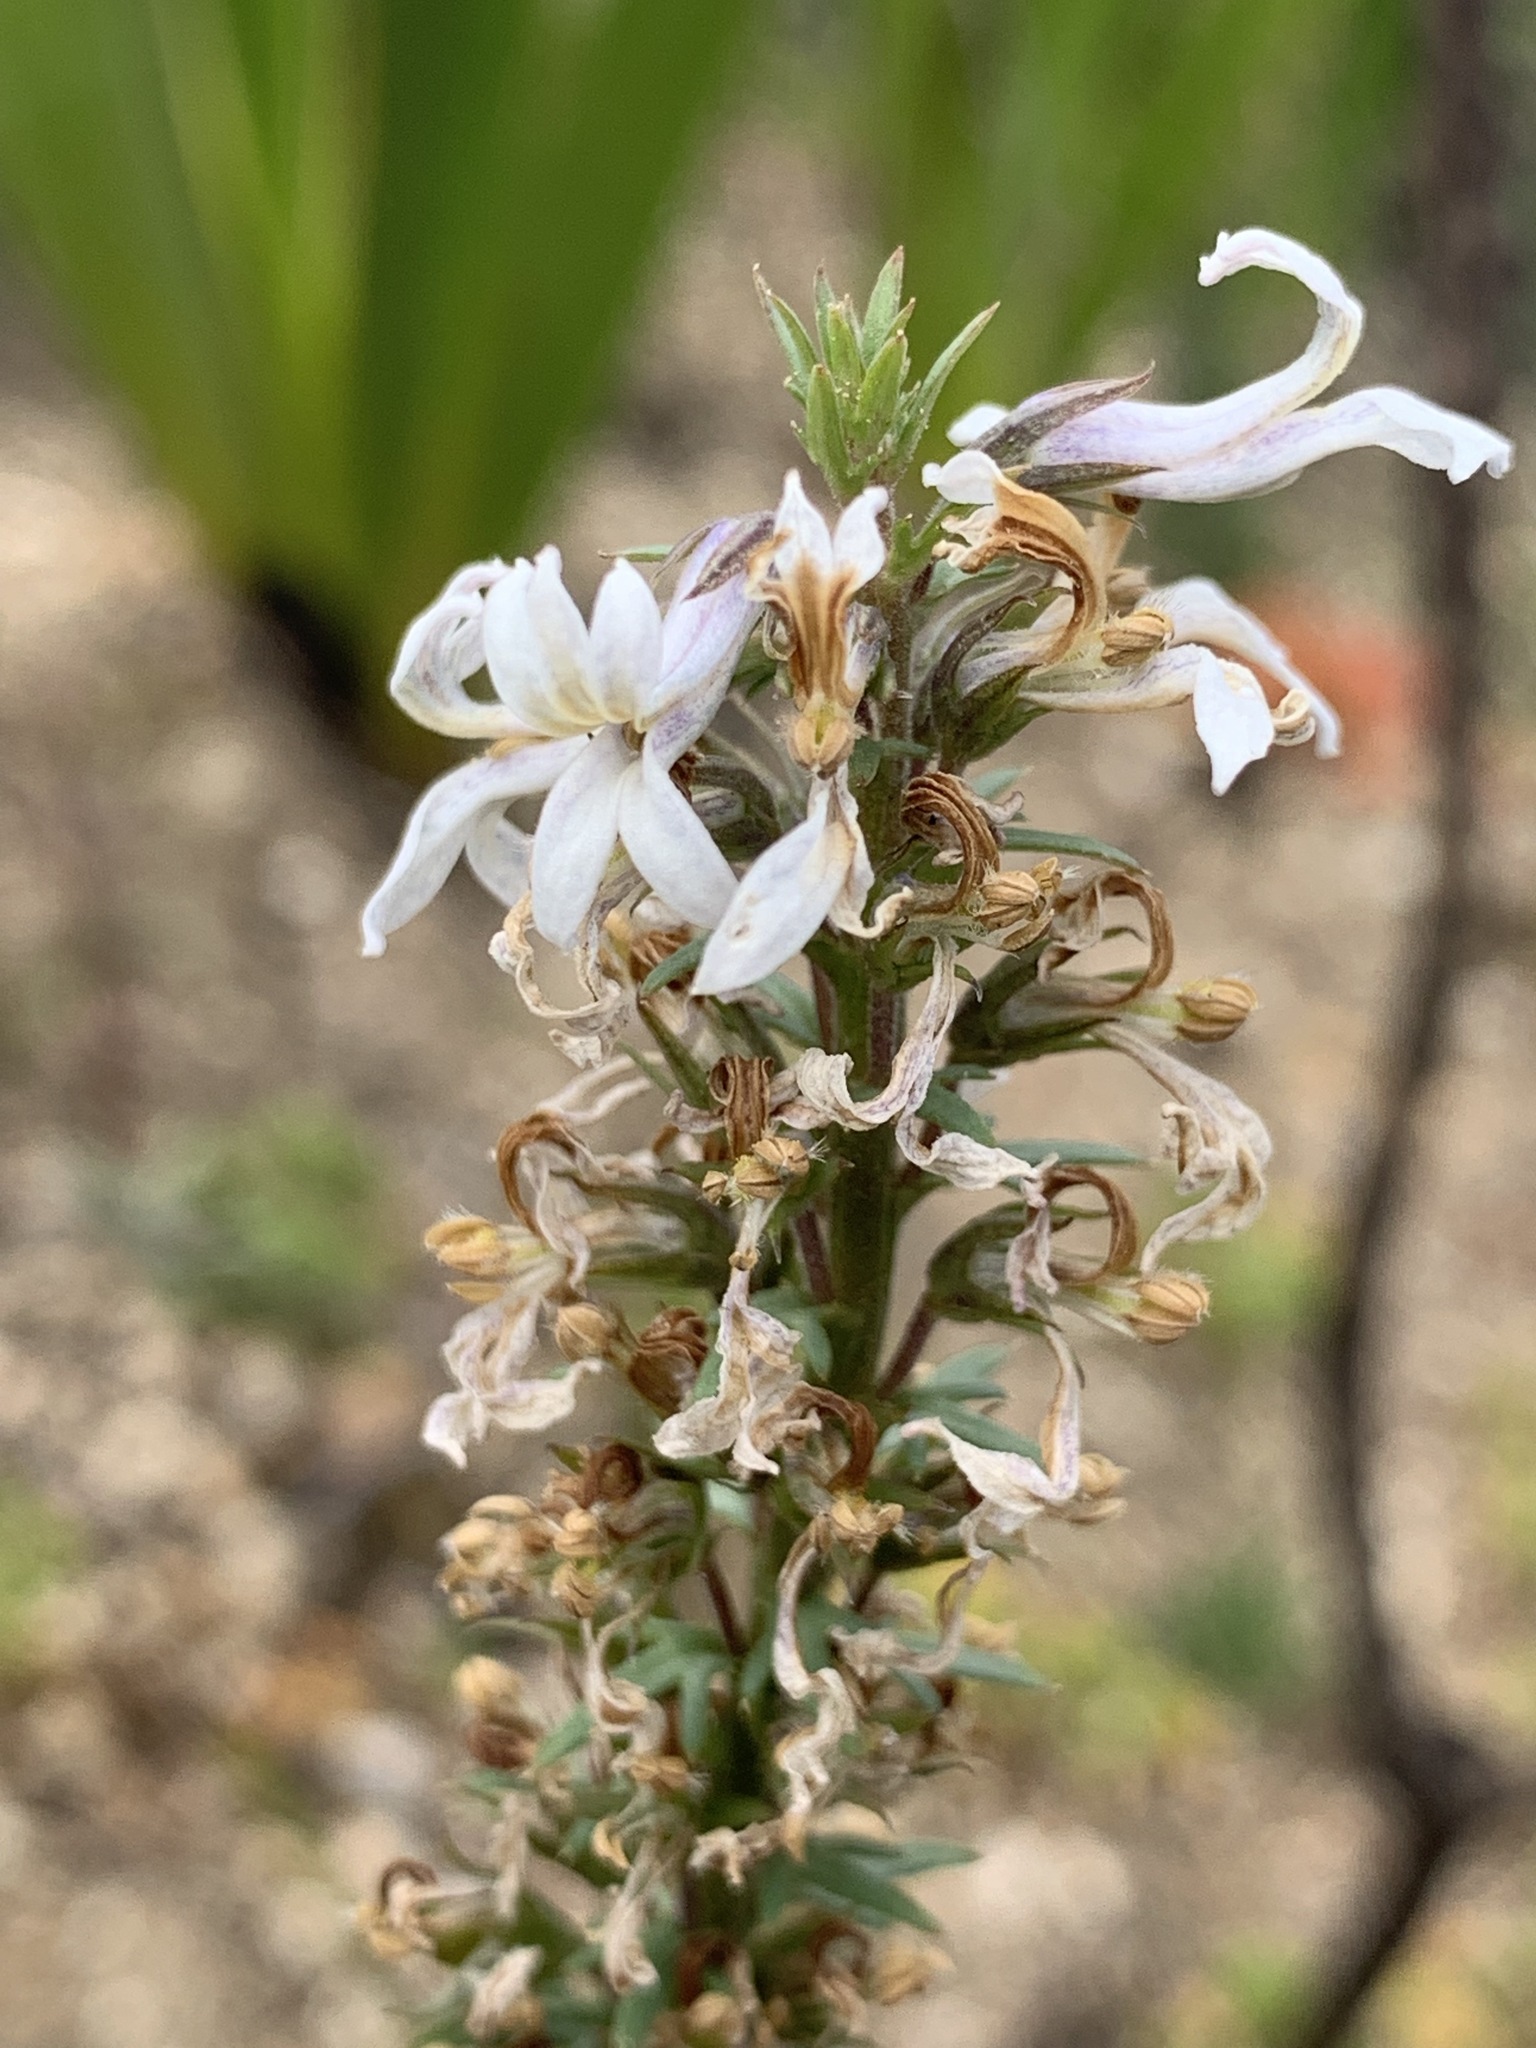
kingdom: Plantae
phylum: Tracheophyta
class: Magnoliopsida
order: Asterales
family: Campanulaceae
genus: Cyphia
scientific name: Cyphia bulbosa
